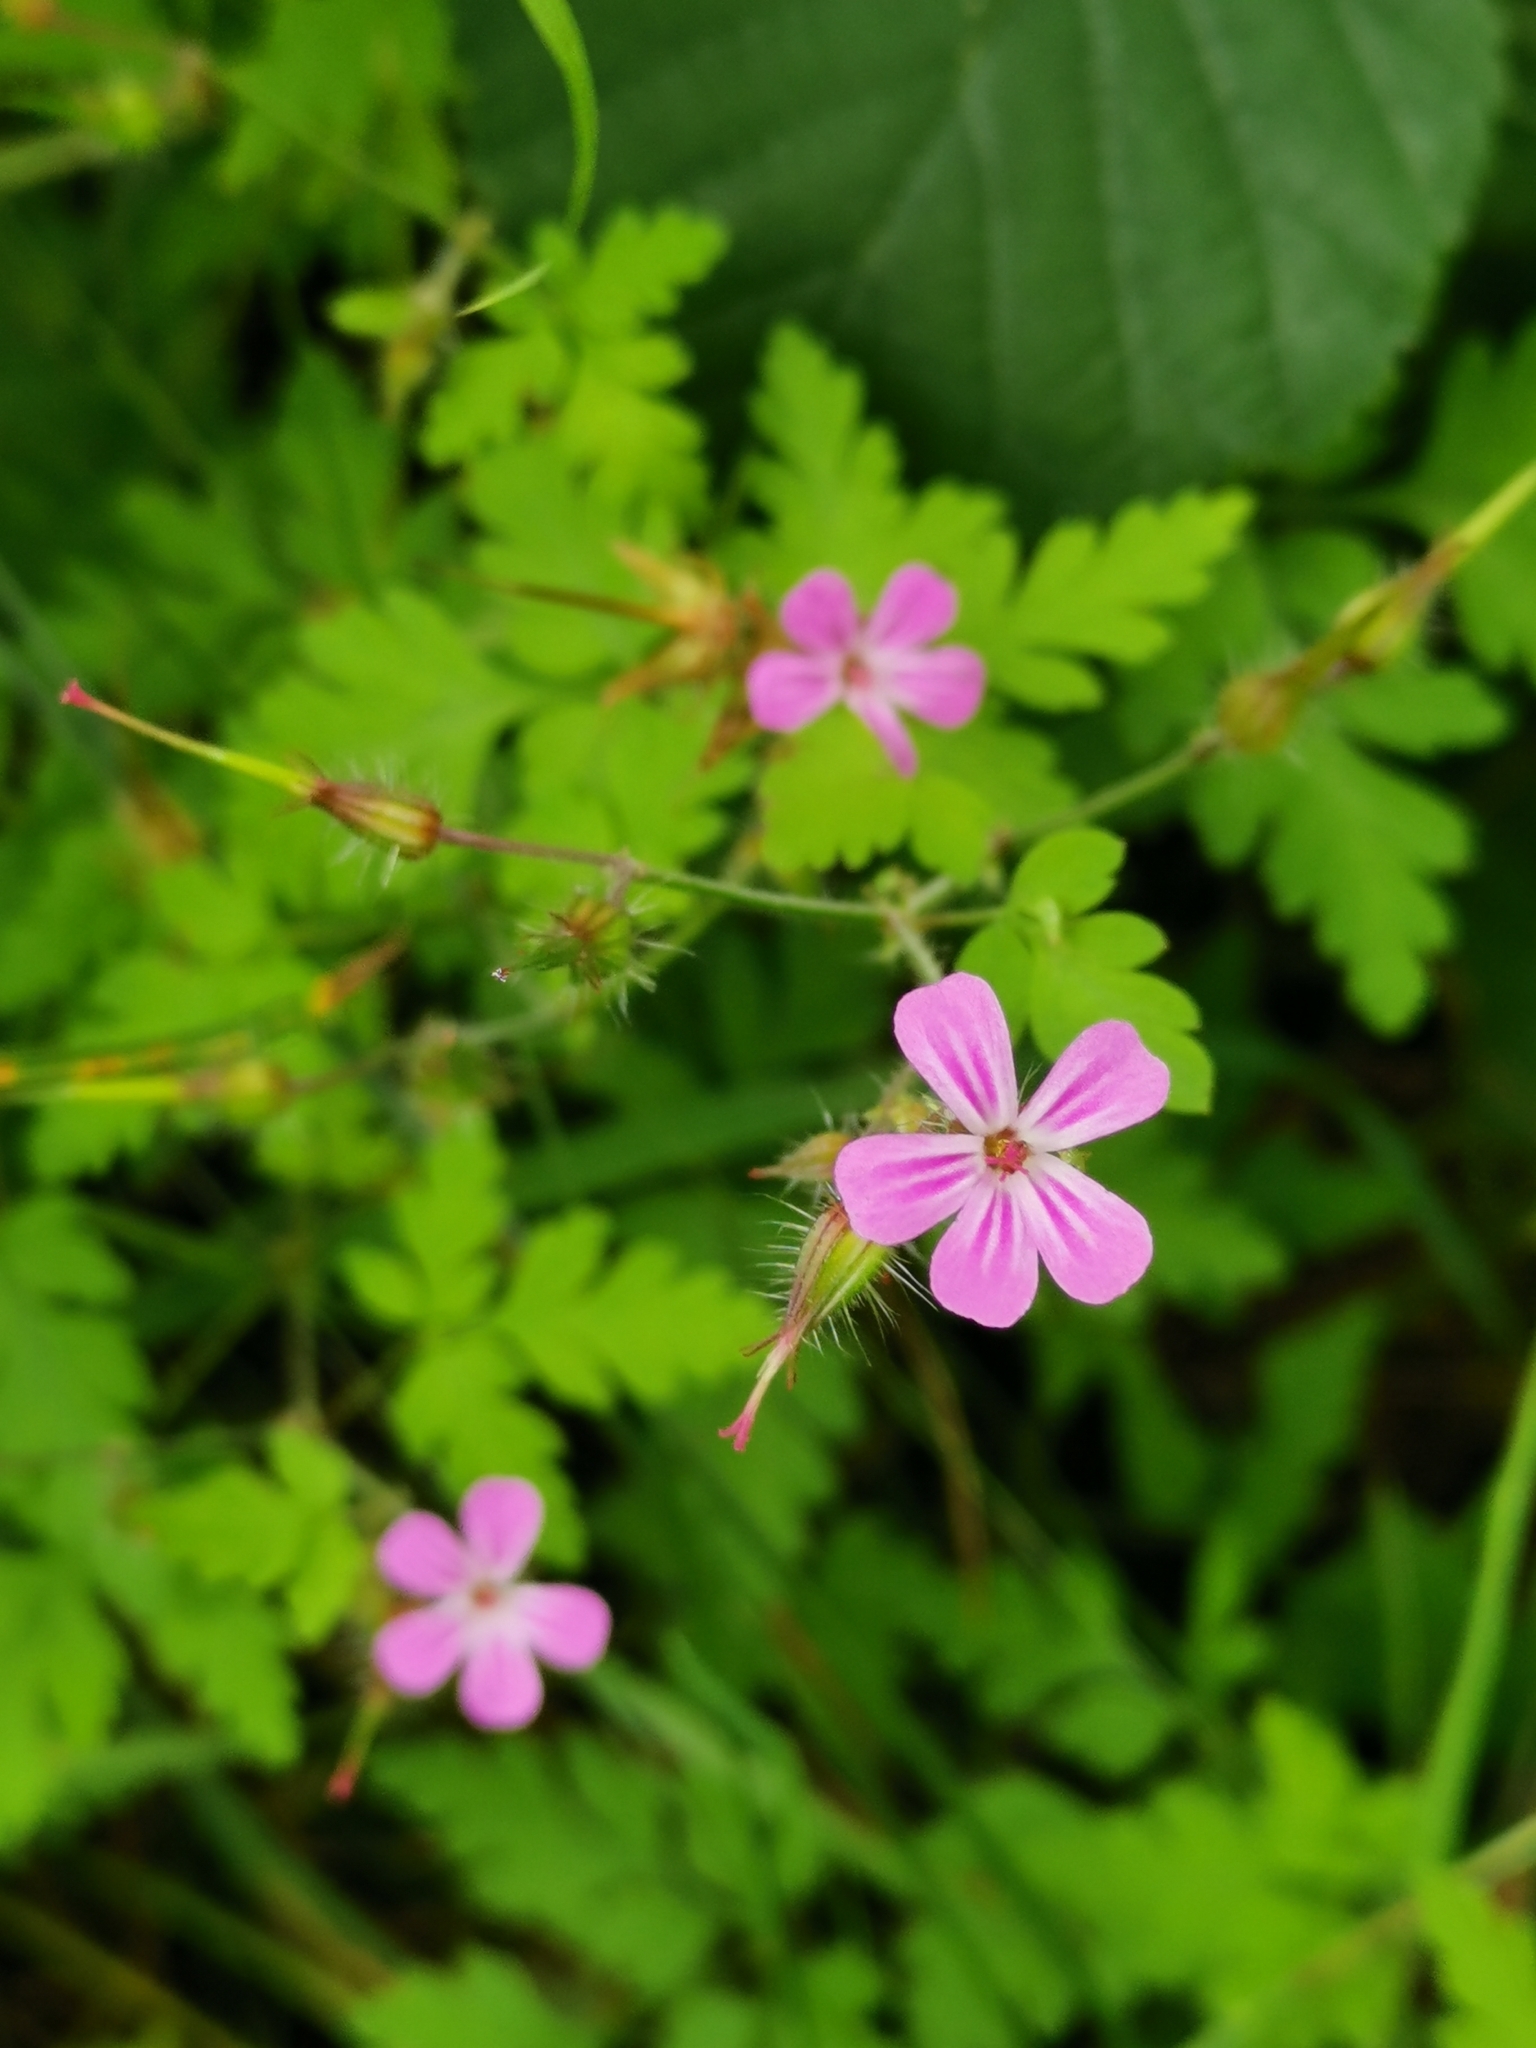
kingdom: Plantae
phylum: Tracheophyta
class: Magnoliopsida
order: Geraniales
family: Geraniaceae
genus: Geranium
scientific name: Geranium robertianum
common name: Herb-robert
